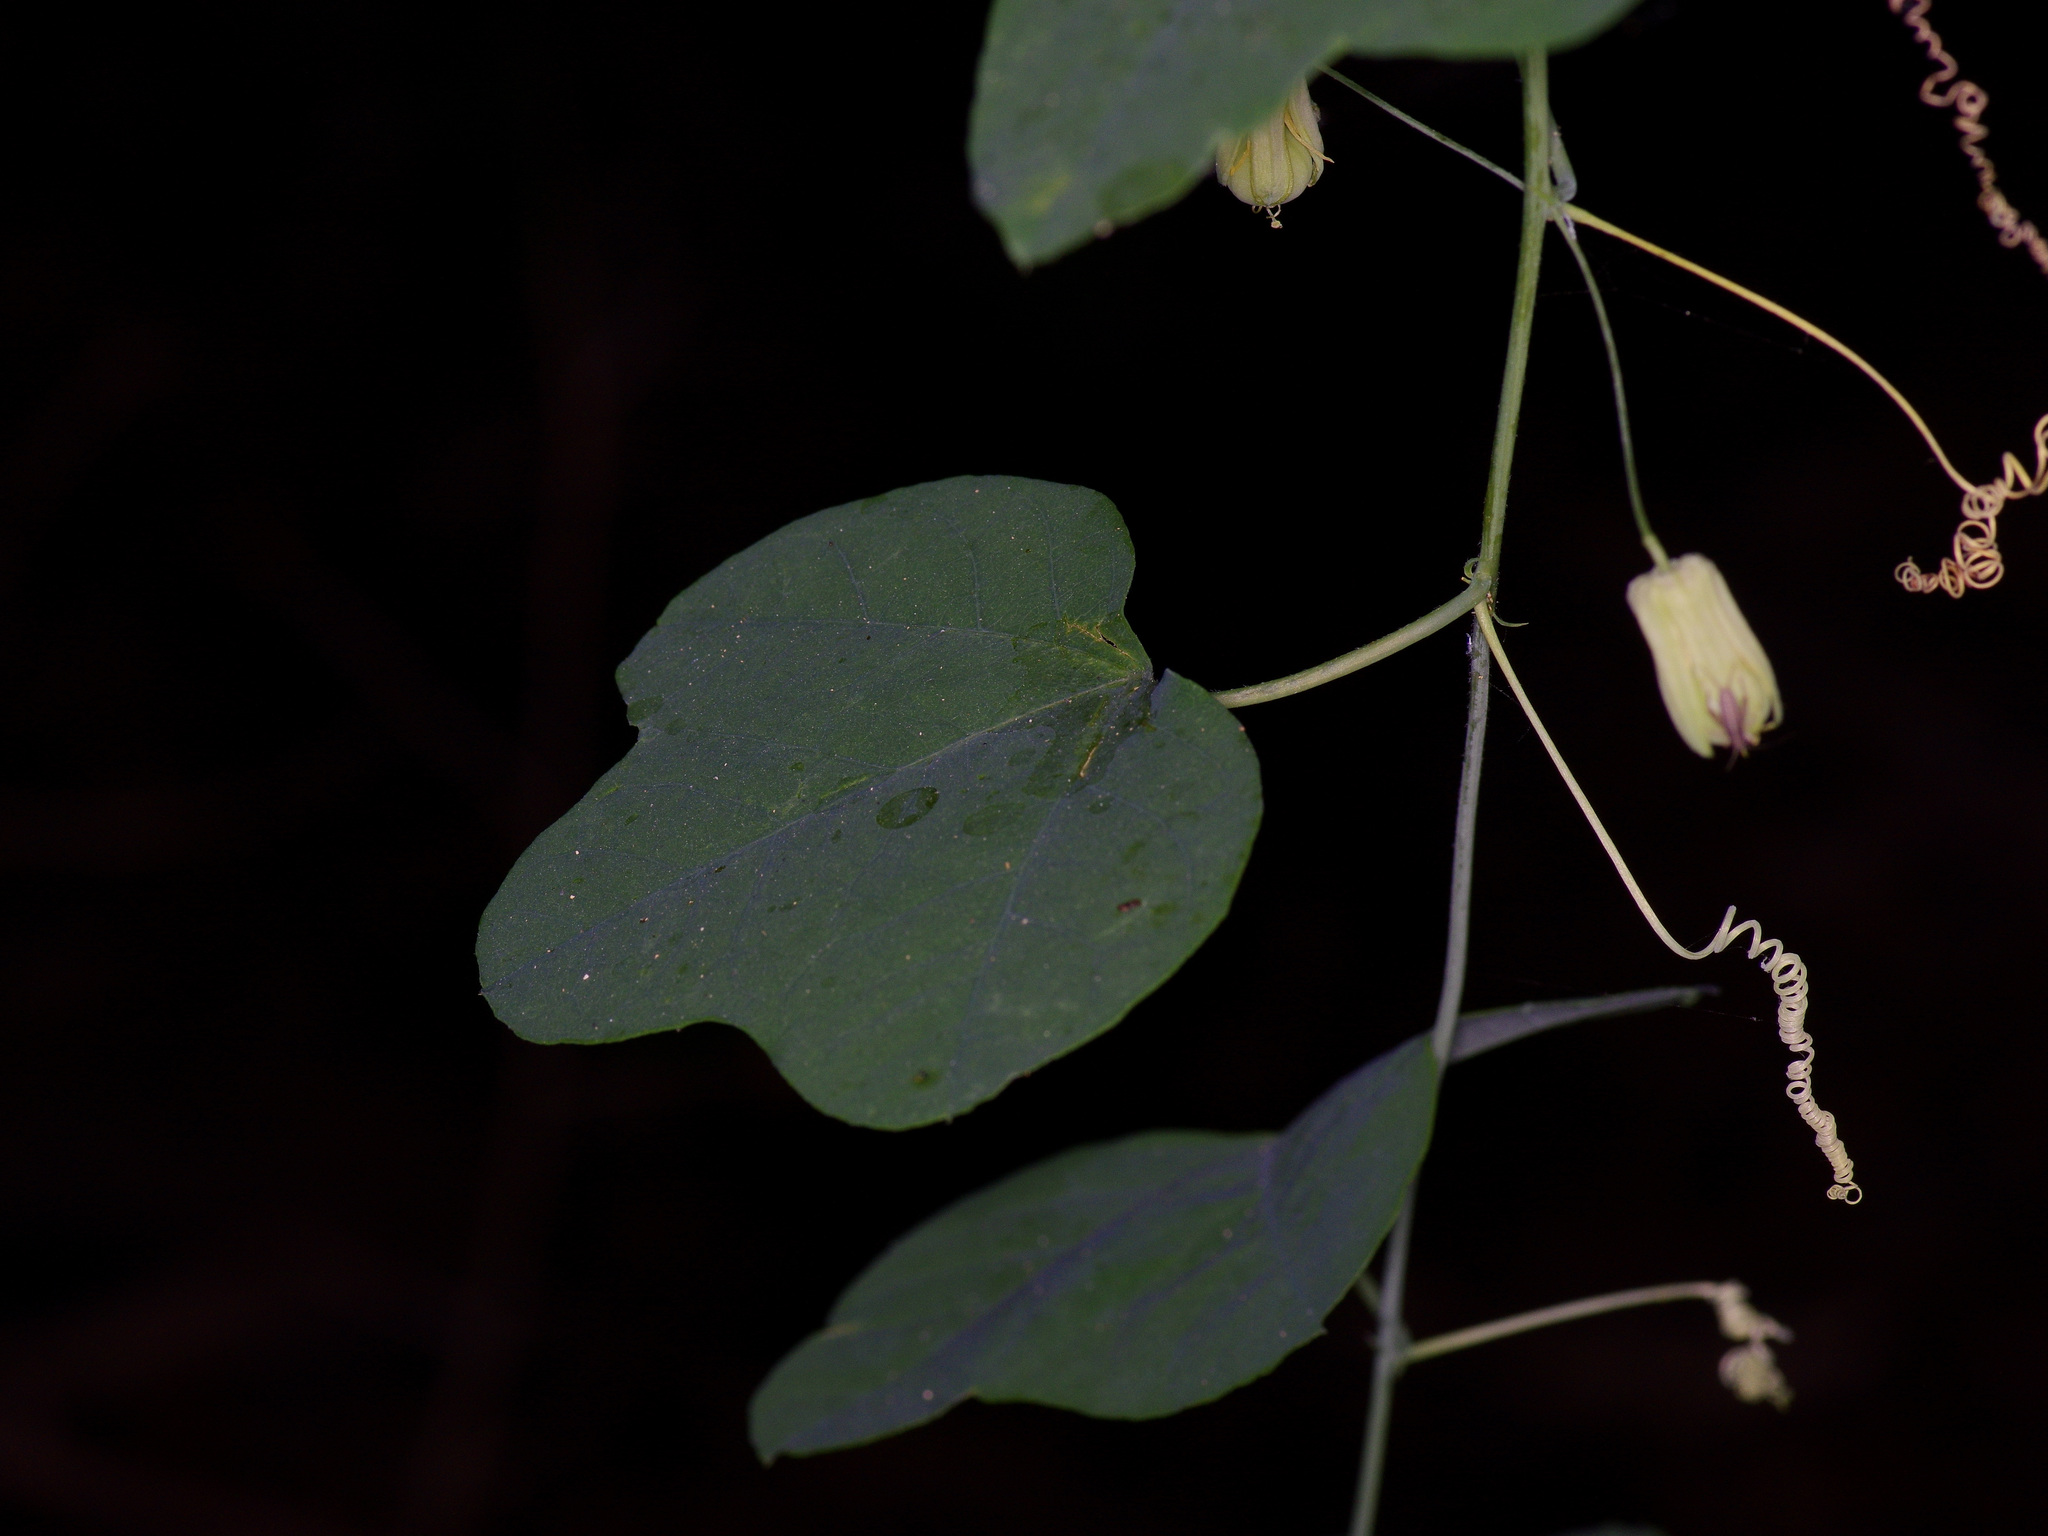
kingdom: Plantae
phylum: Tracheophyta
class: Magnoliopsida
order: Malpighiales
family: Passifloraceae
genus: Passiflora
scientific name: Passiflora lutea
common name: Yellow passionflower
